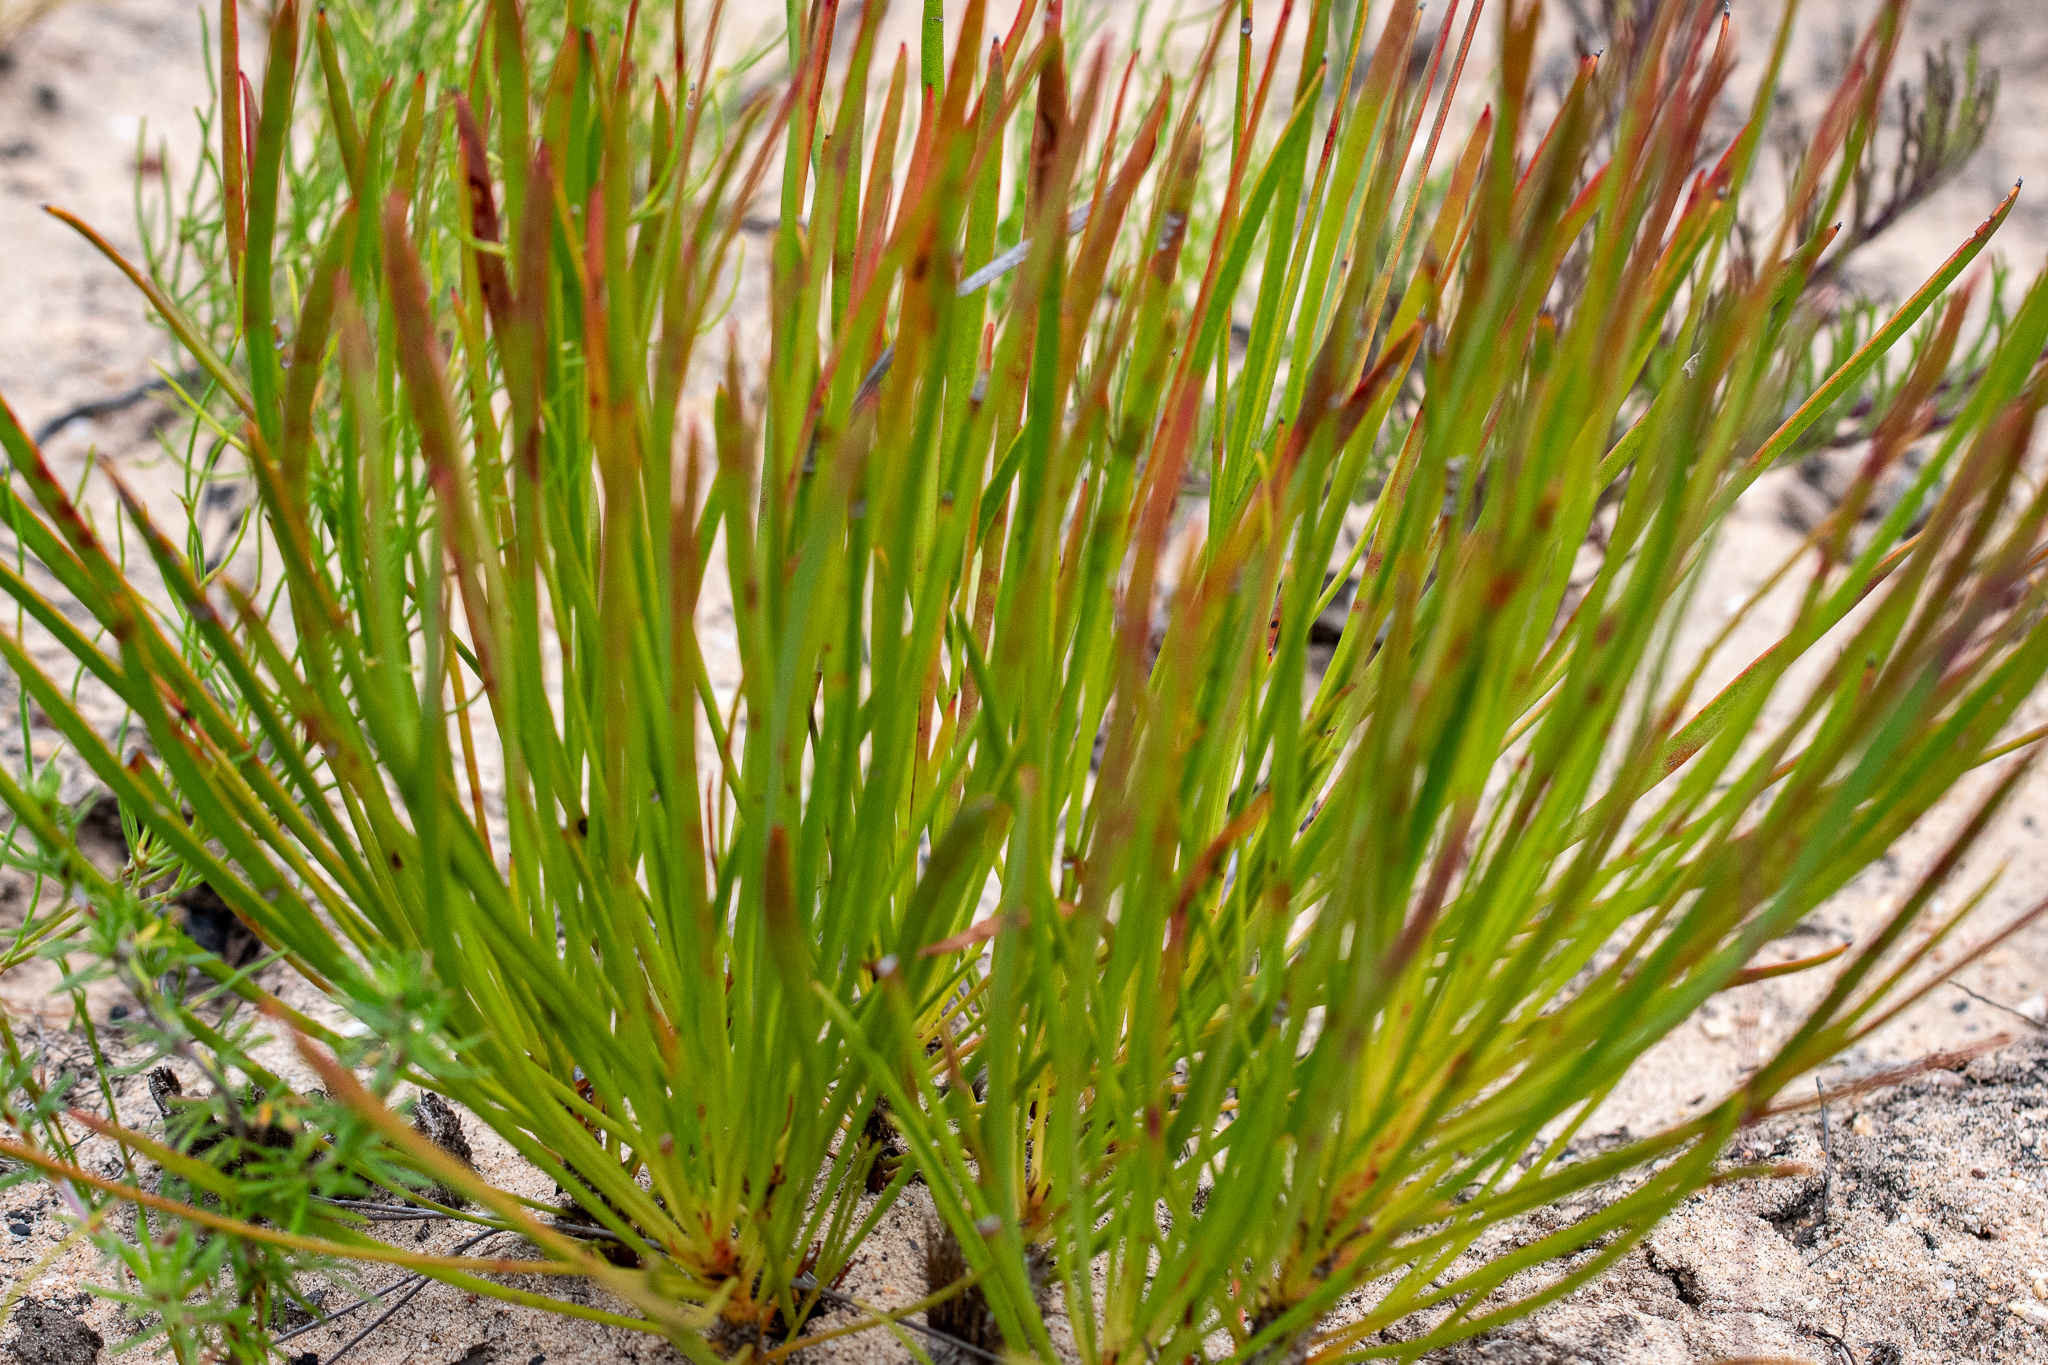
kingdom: Plantae
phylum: Tracheophyta
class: Magnoliopsida
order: Proteales
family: Proteaceae
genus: Protea
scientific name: Protea angustata
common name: Kleinmond sugarbush
